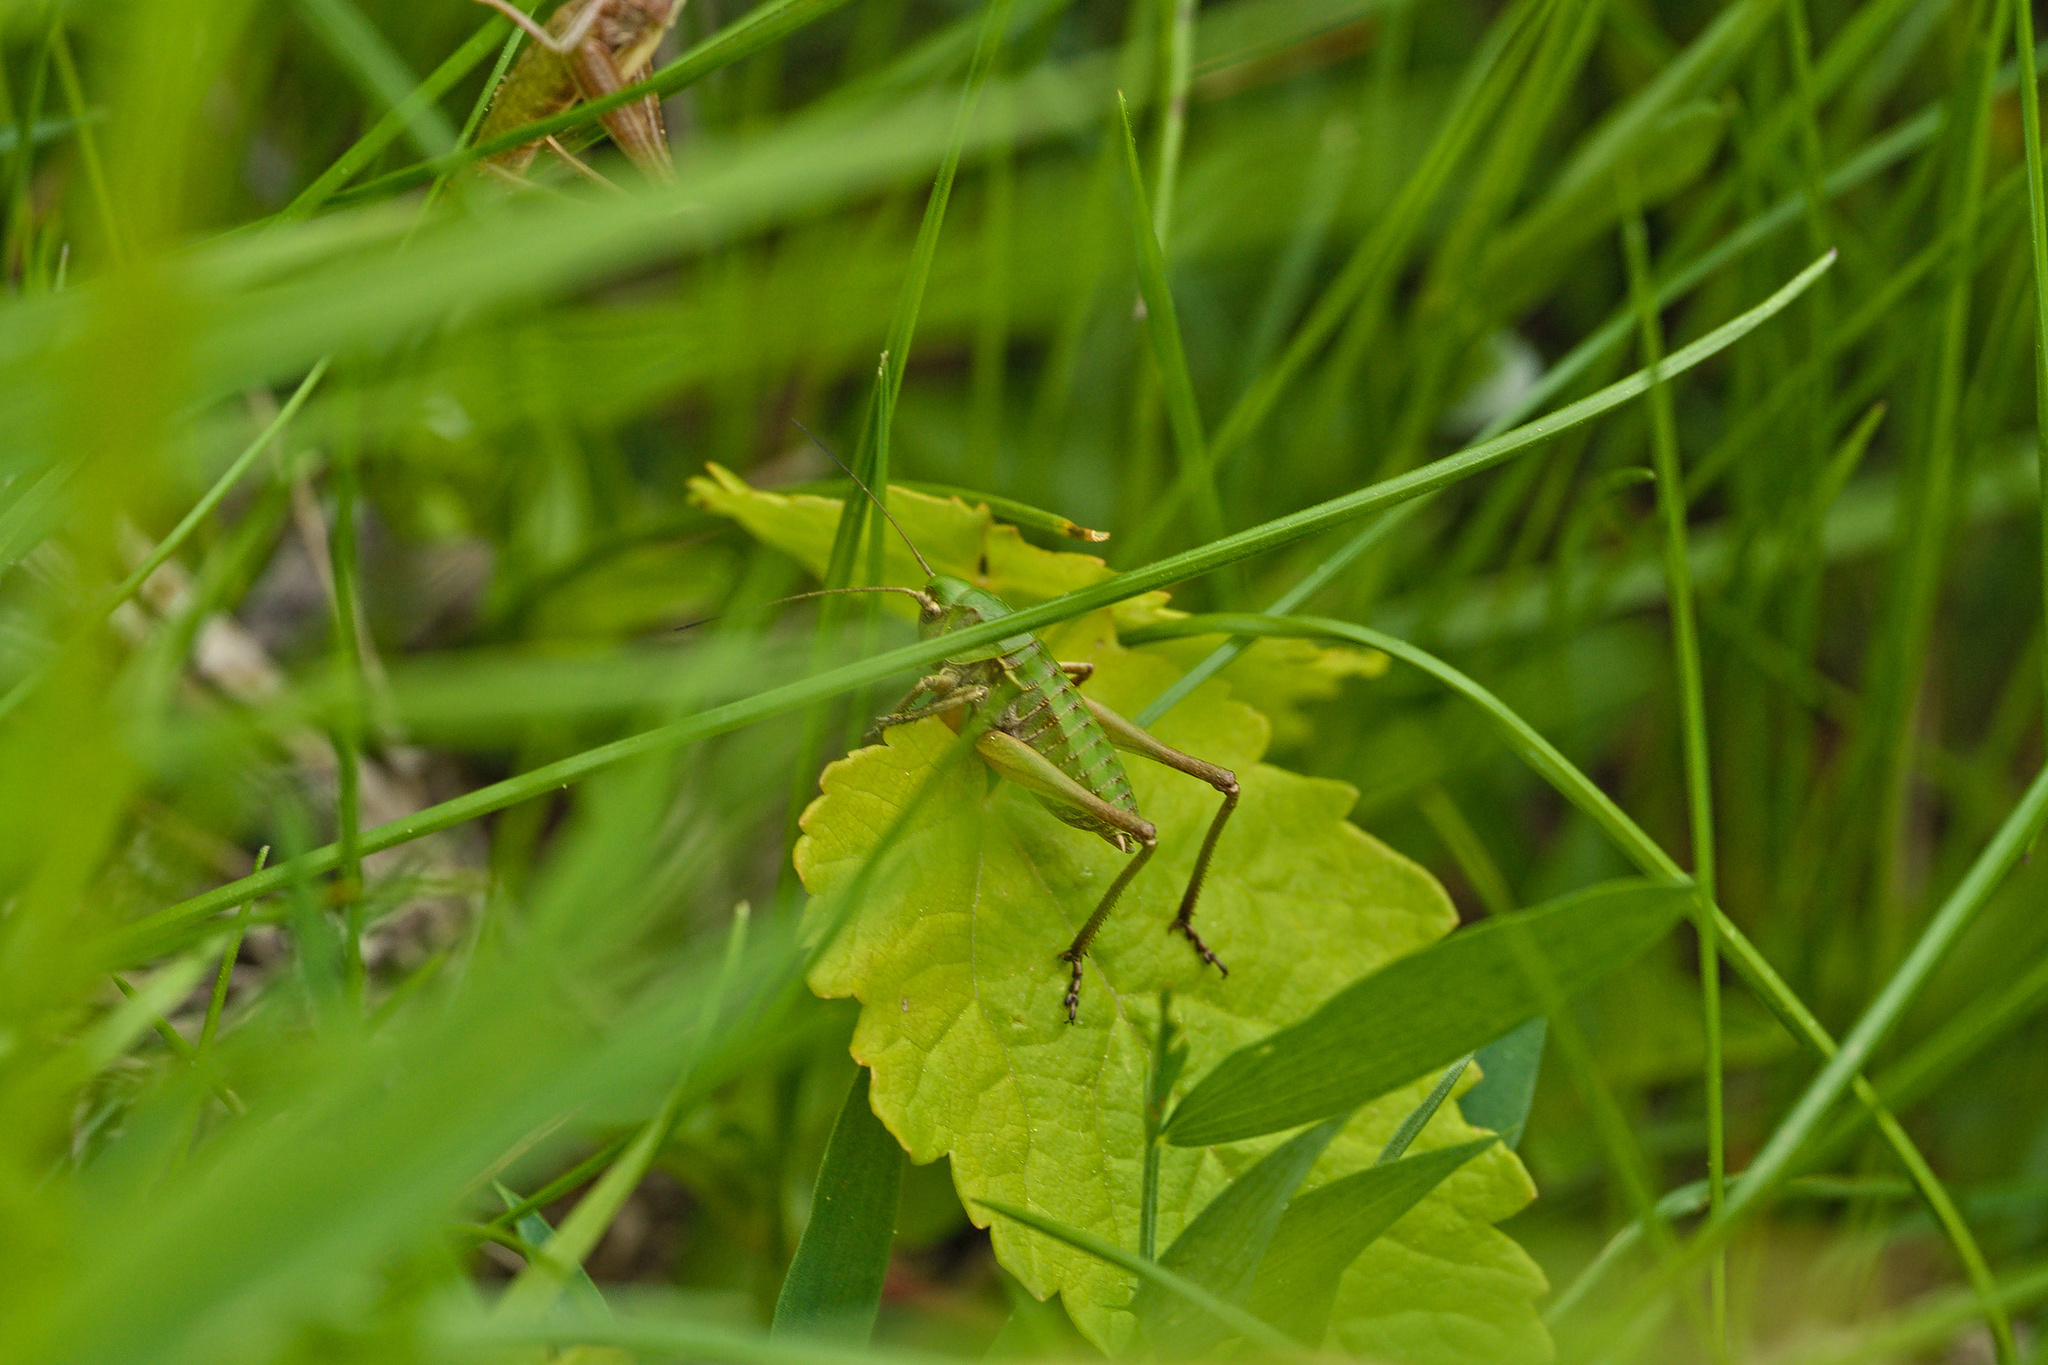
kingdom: Animalia
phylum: Arthropoda
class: Insecta
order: Orthoptera
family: Tettigoniidae
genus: Decticus
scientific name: Decticus verrucivorus
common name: Wart-biter
